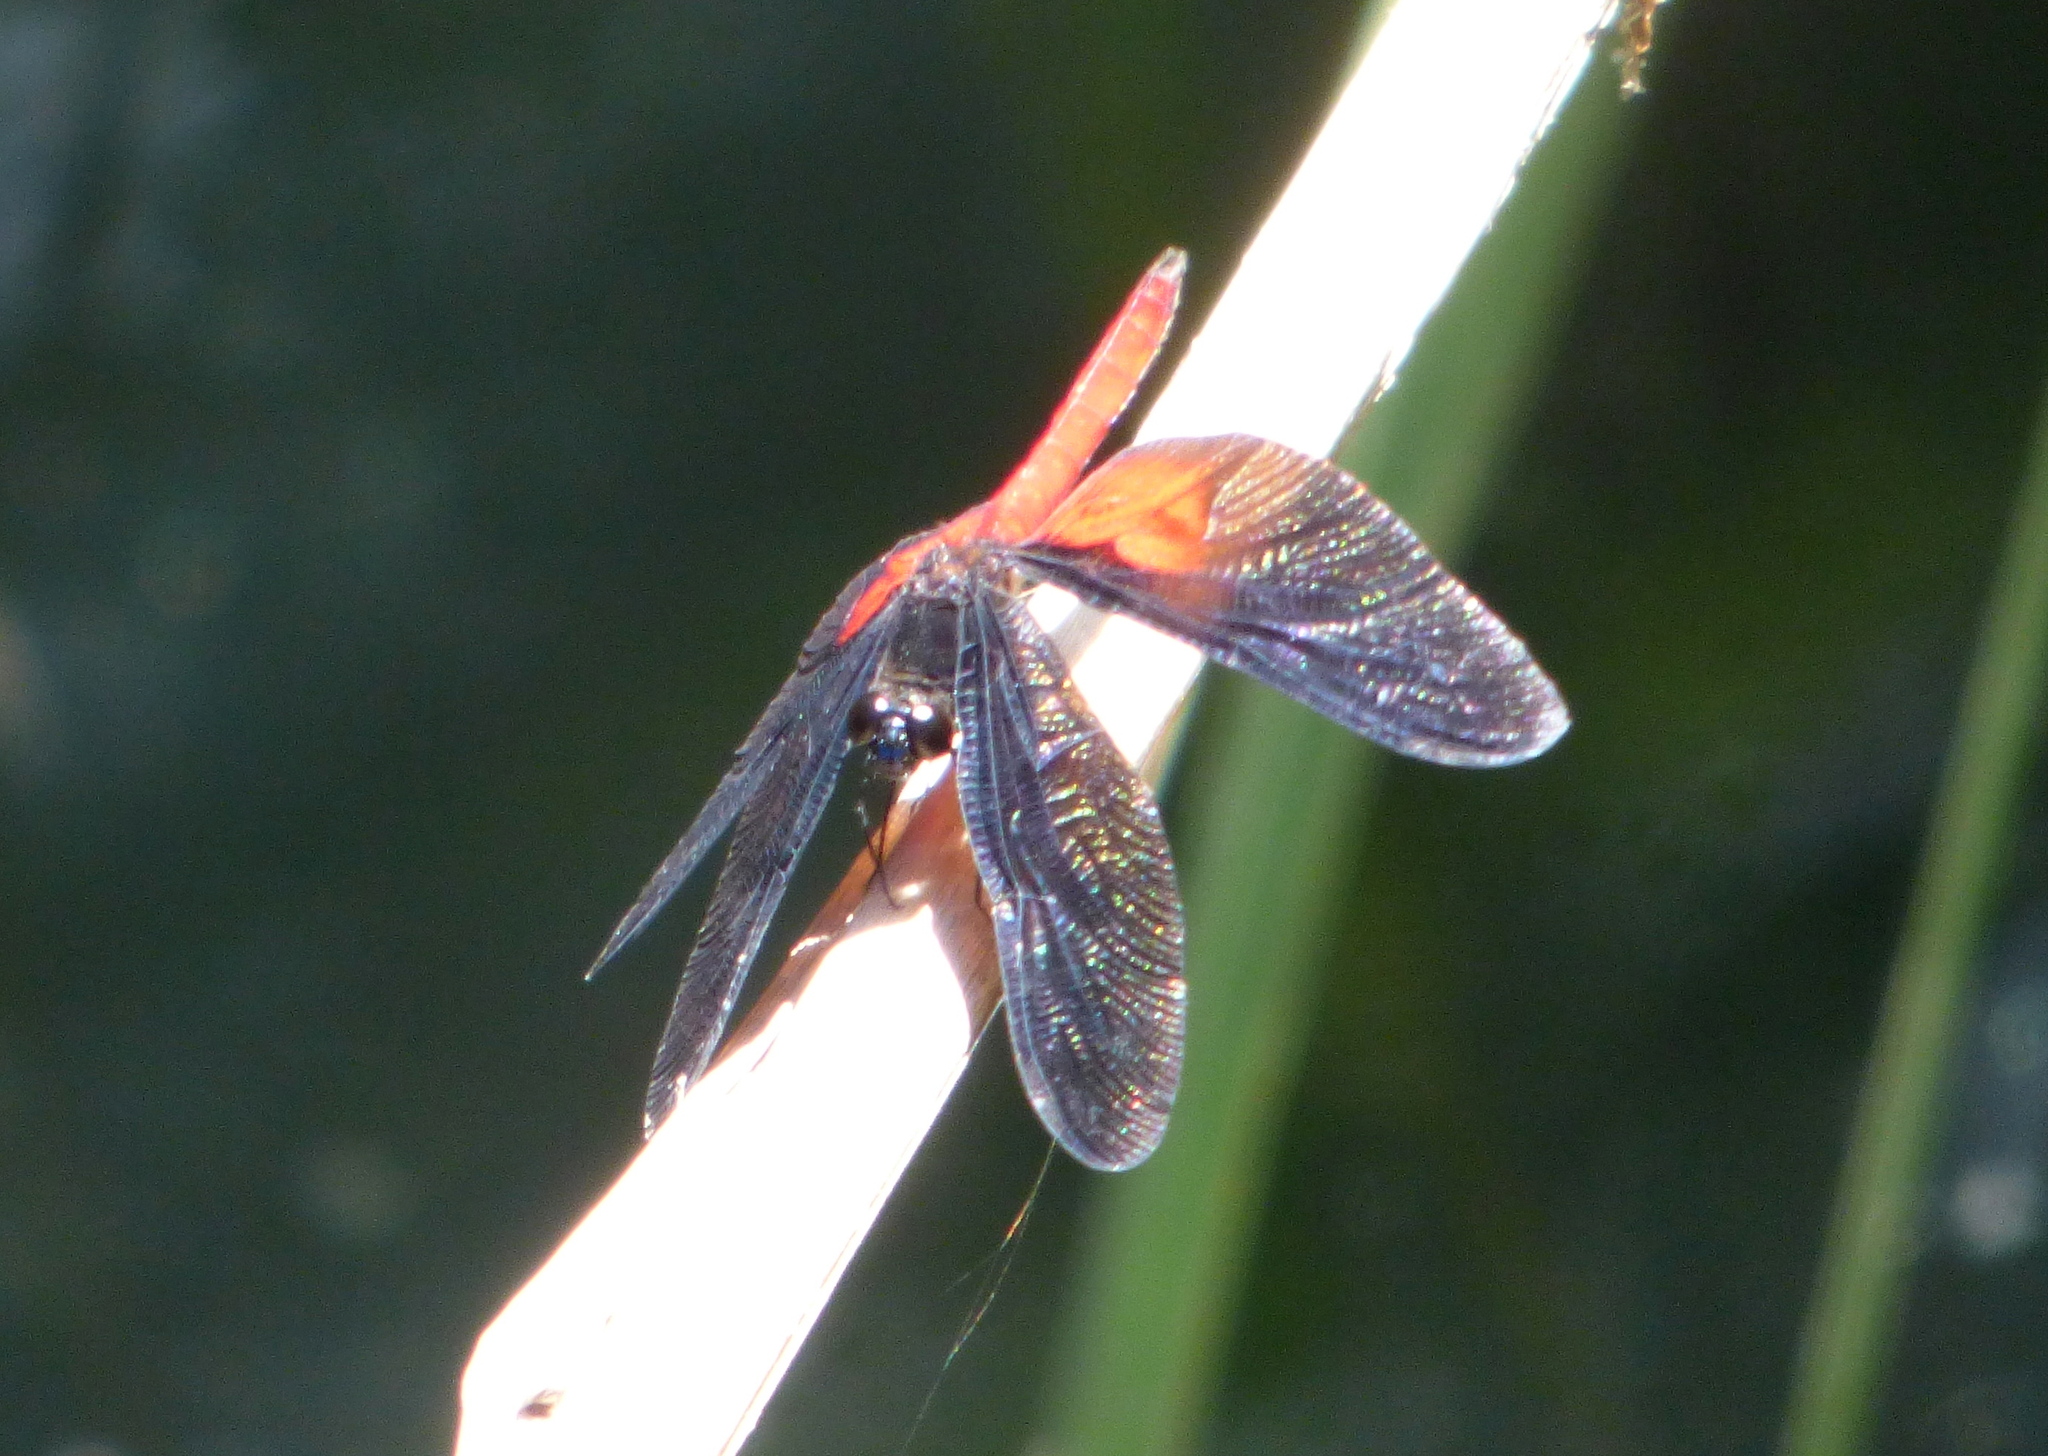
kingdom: Animalia
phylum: Arthropoda
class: Insecta
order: Odonata
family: Libellulidae
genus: Diastatops
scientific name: Diastatops intensa
